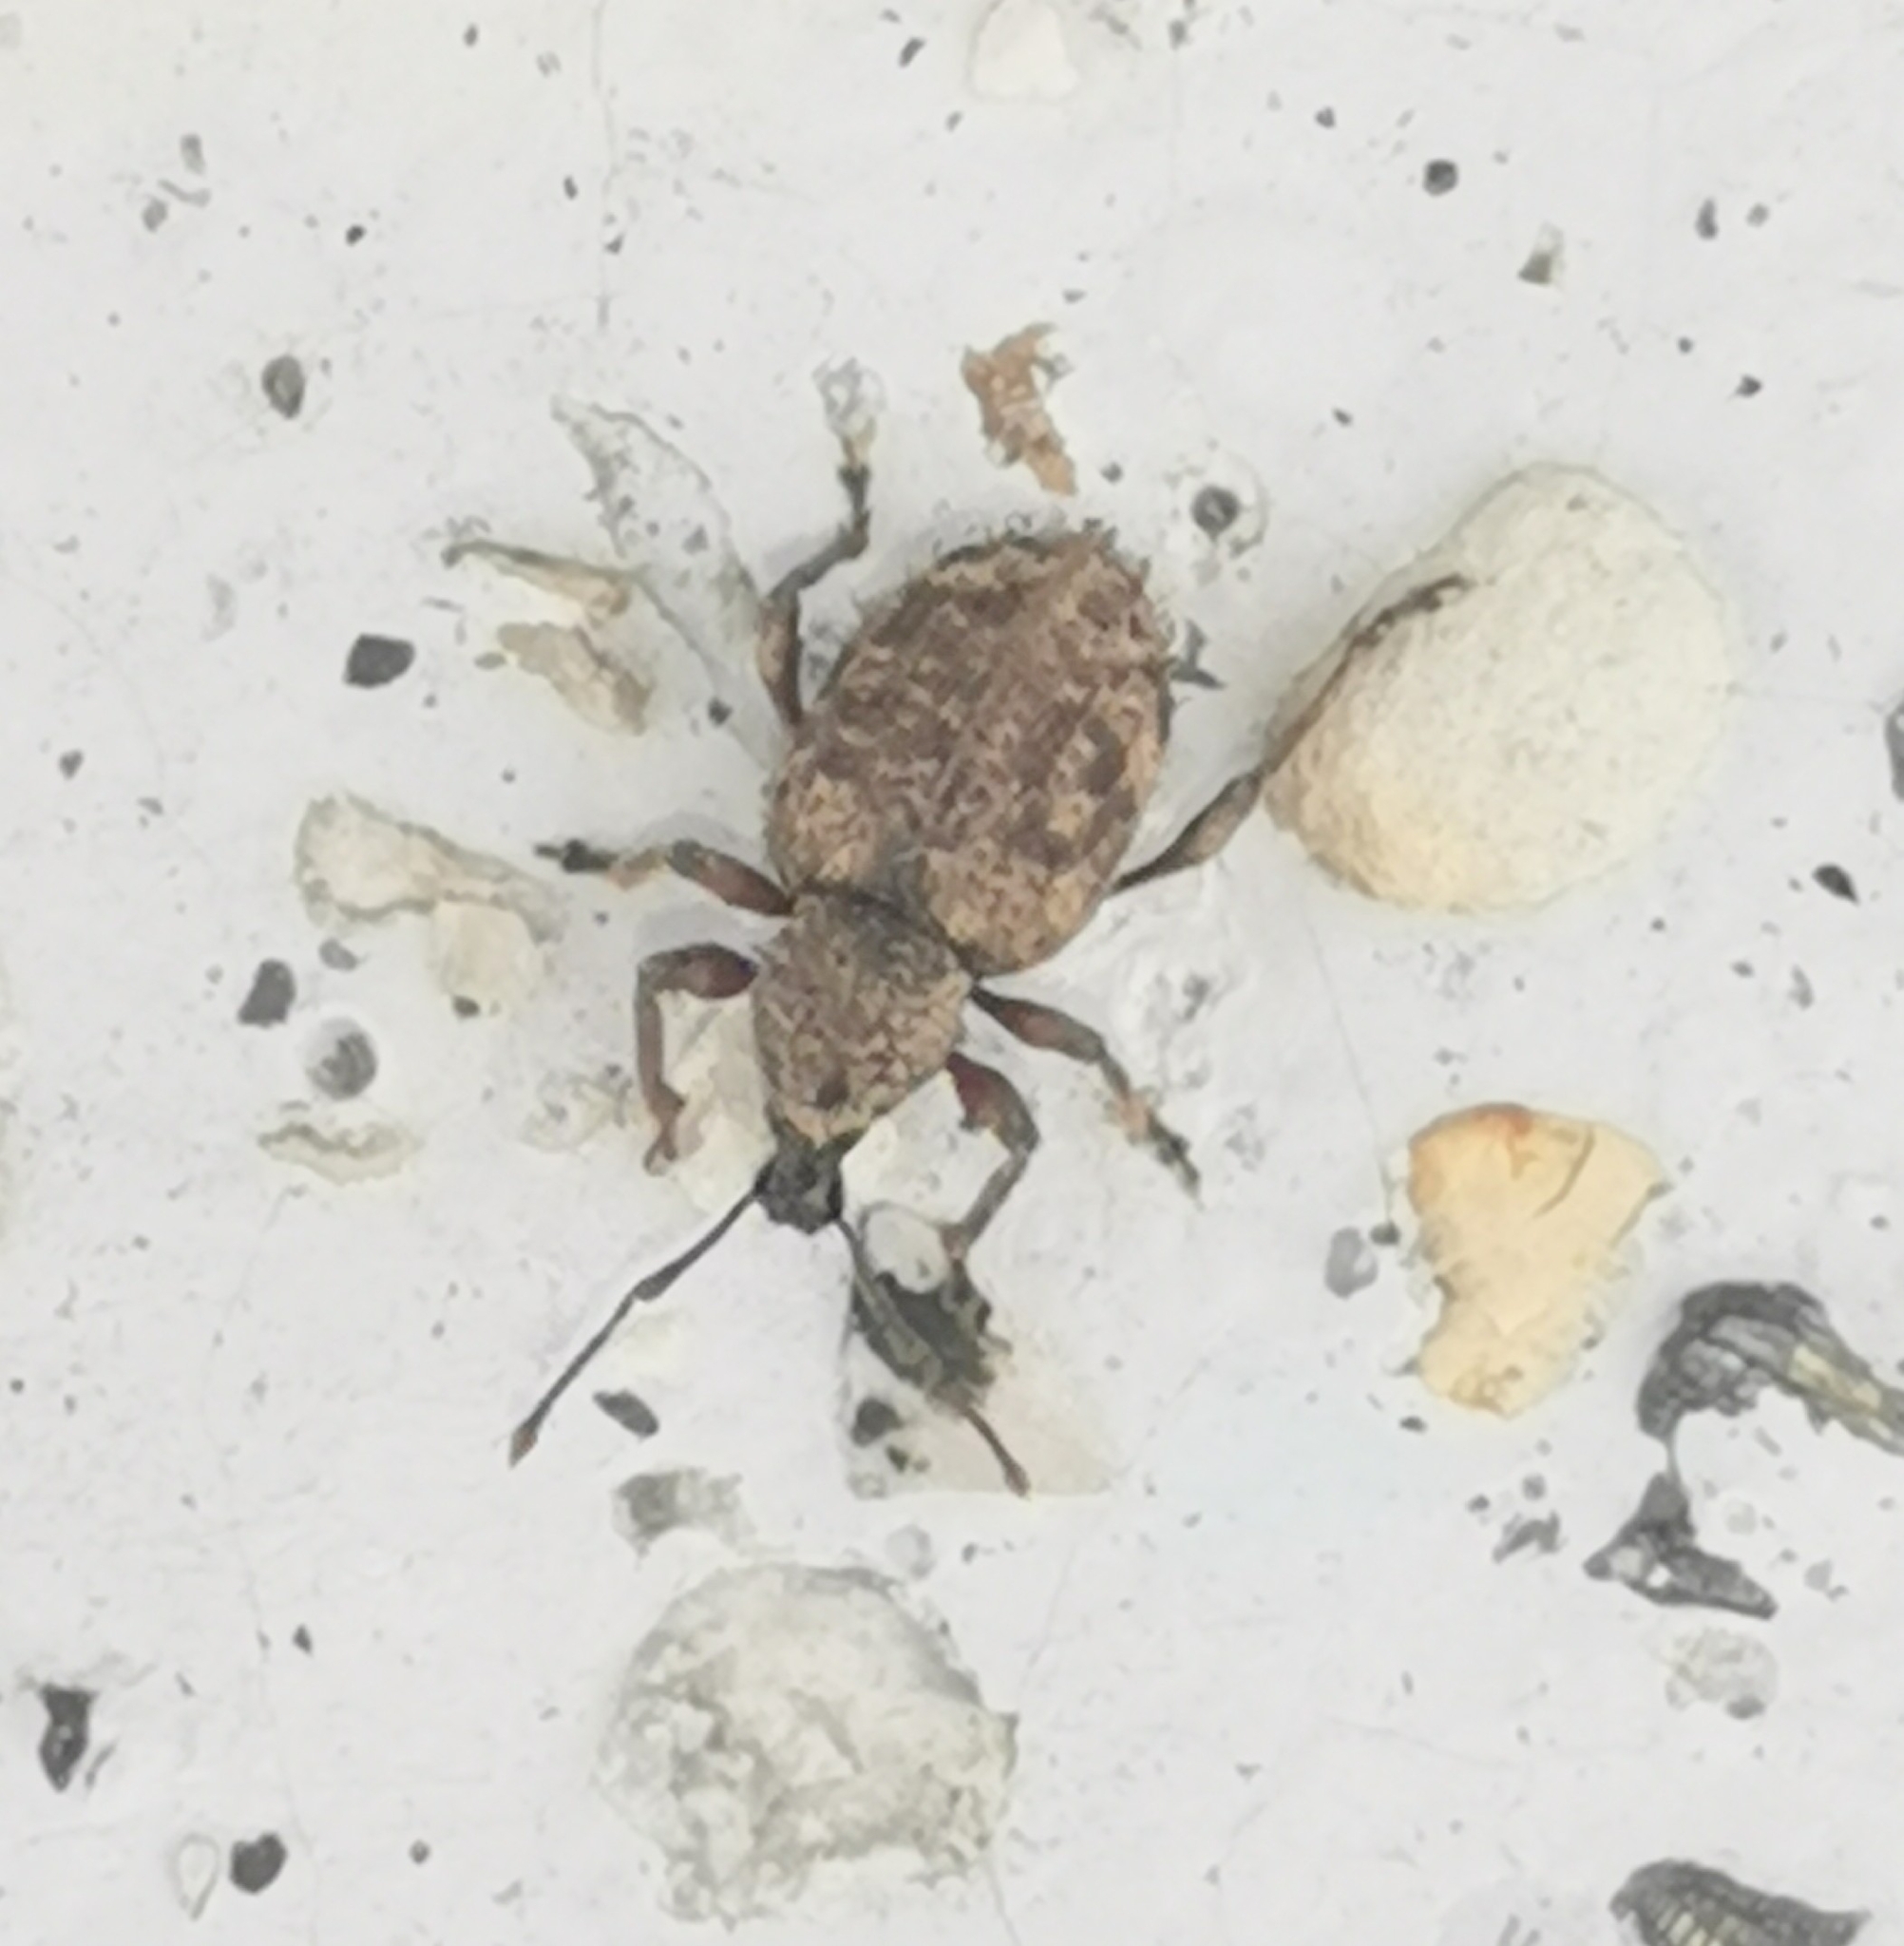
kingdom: Animalia
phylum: Arthropoda
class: Insecta
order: Coleoptera
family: Curculionidae
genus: Otiorhynchus
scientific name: Otiorhynchus carinatopunctatus
